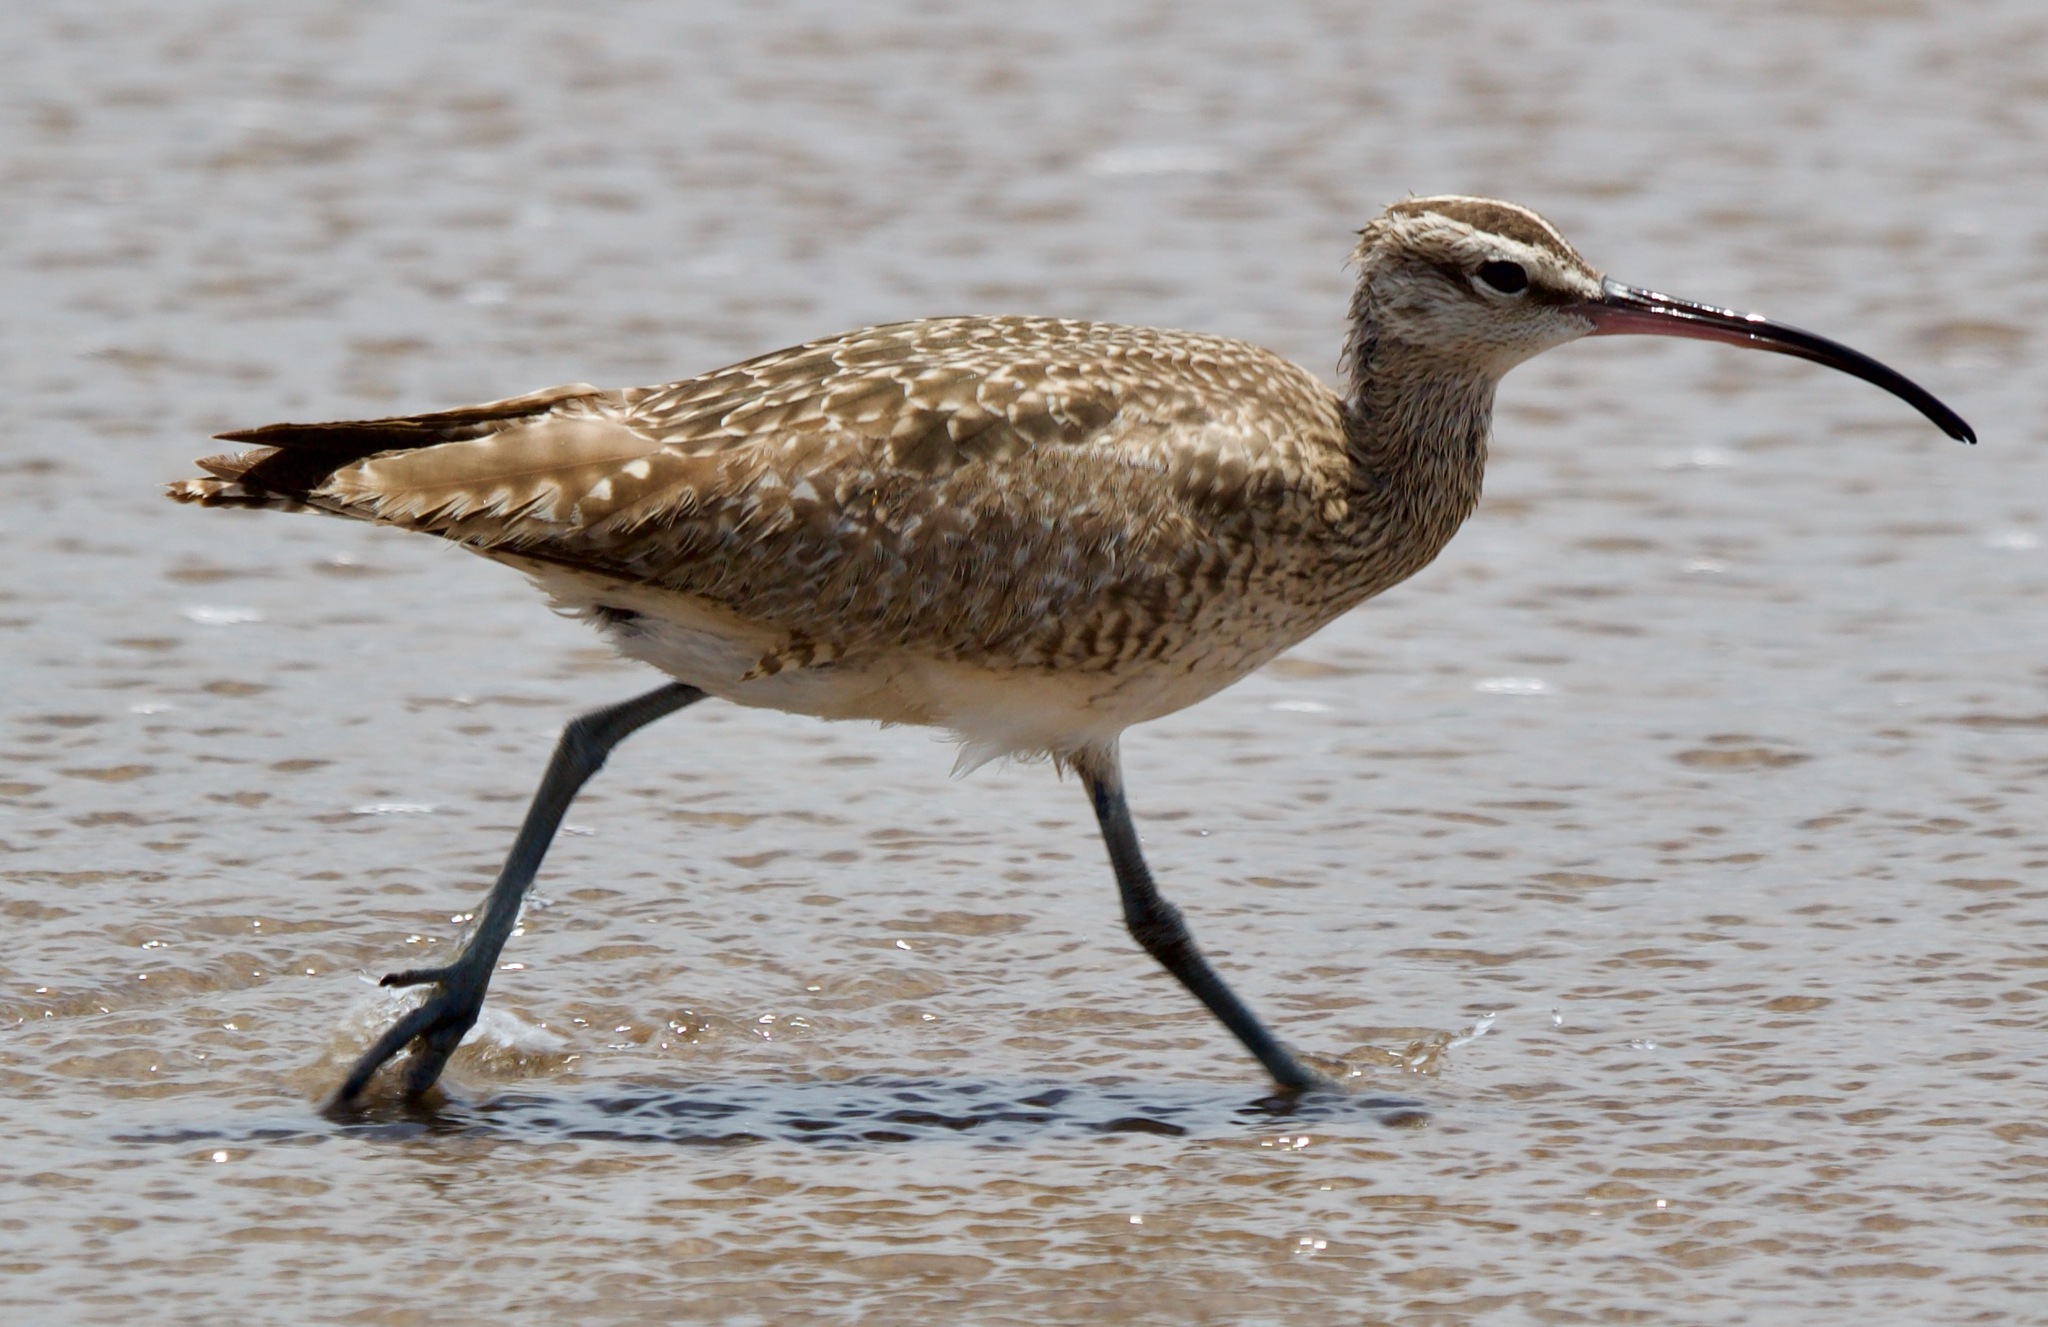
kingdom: Animalia
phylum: Chordata
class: Aves
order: Charadriiformes
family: Scolopacidae
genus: Numenius
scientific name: Numenius phaeopus
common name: Whimbrel
